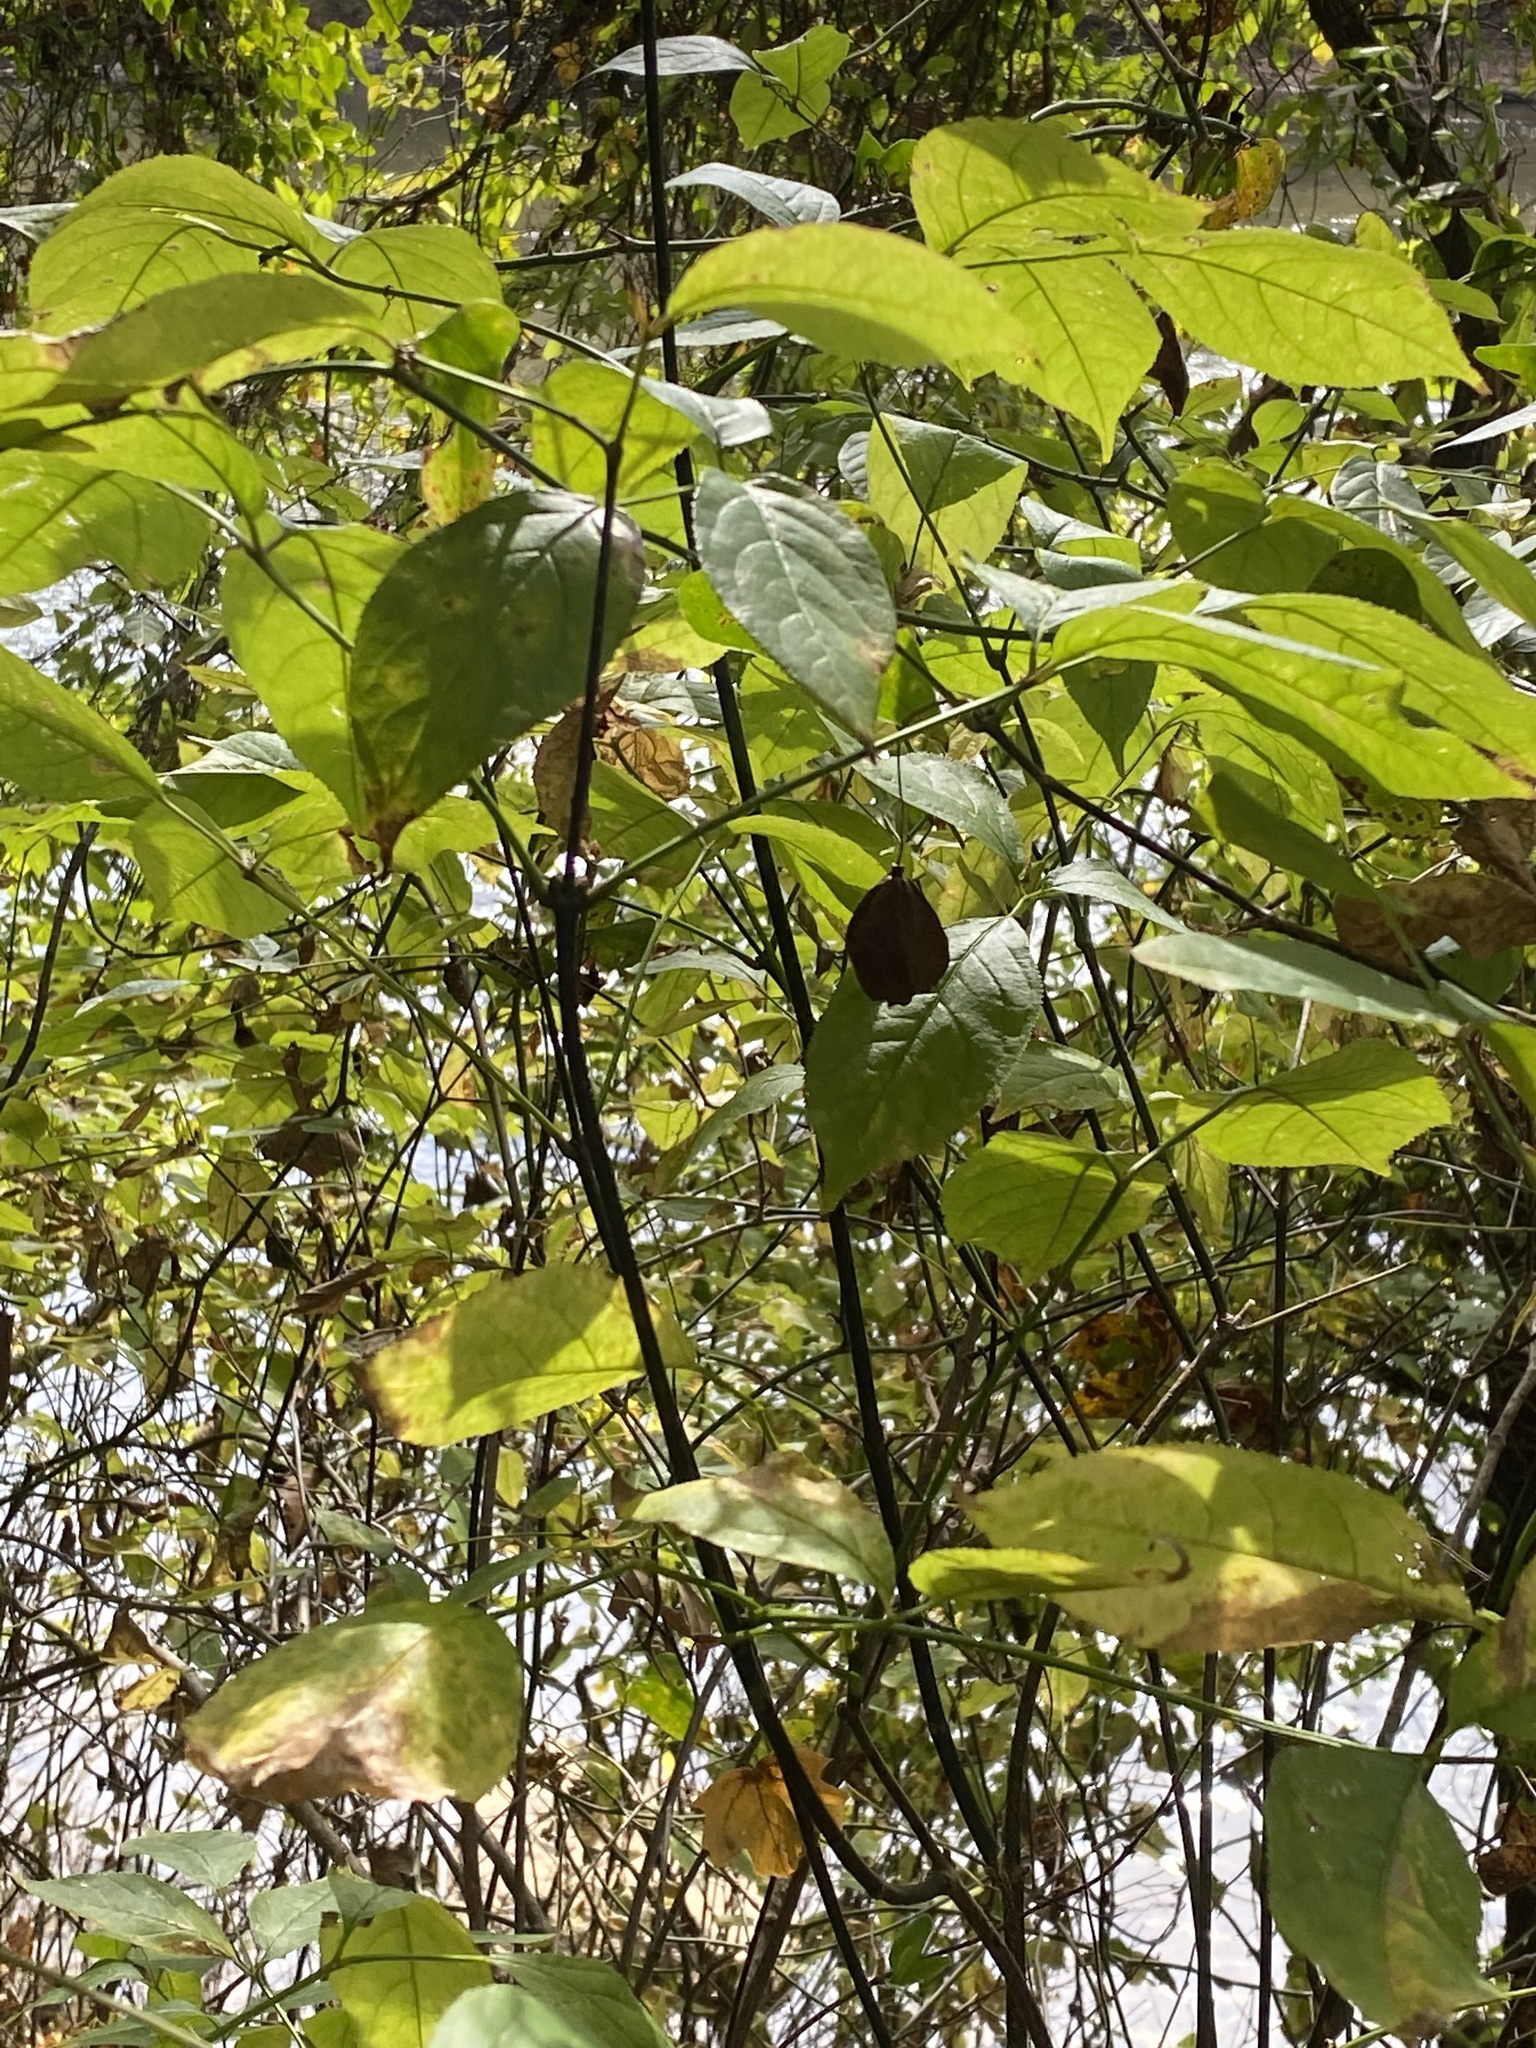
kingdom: Plantae
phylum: Tracheophyta
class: Magnoliopsida
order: Crossosomatales
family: Staphyleaceae
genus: Staphylea
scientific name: Staphylea trifolia
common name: American bladdernut
